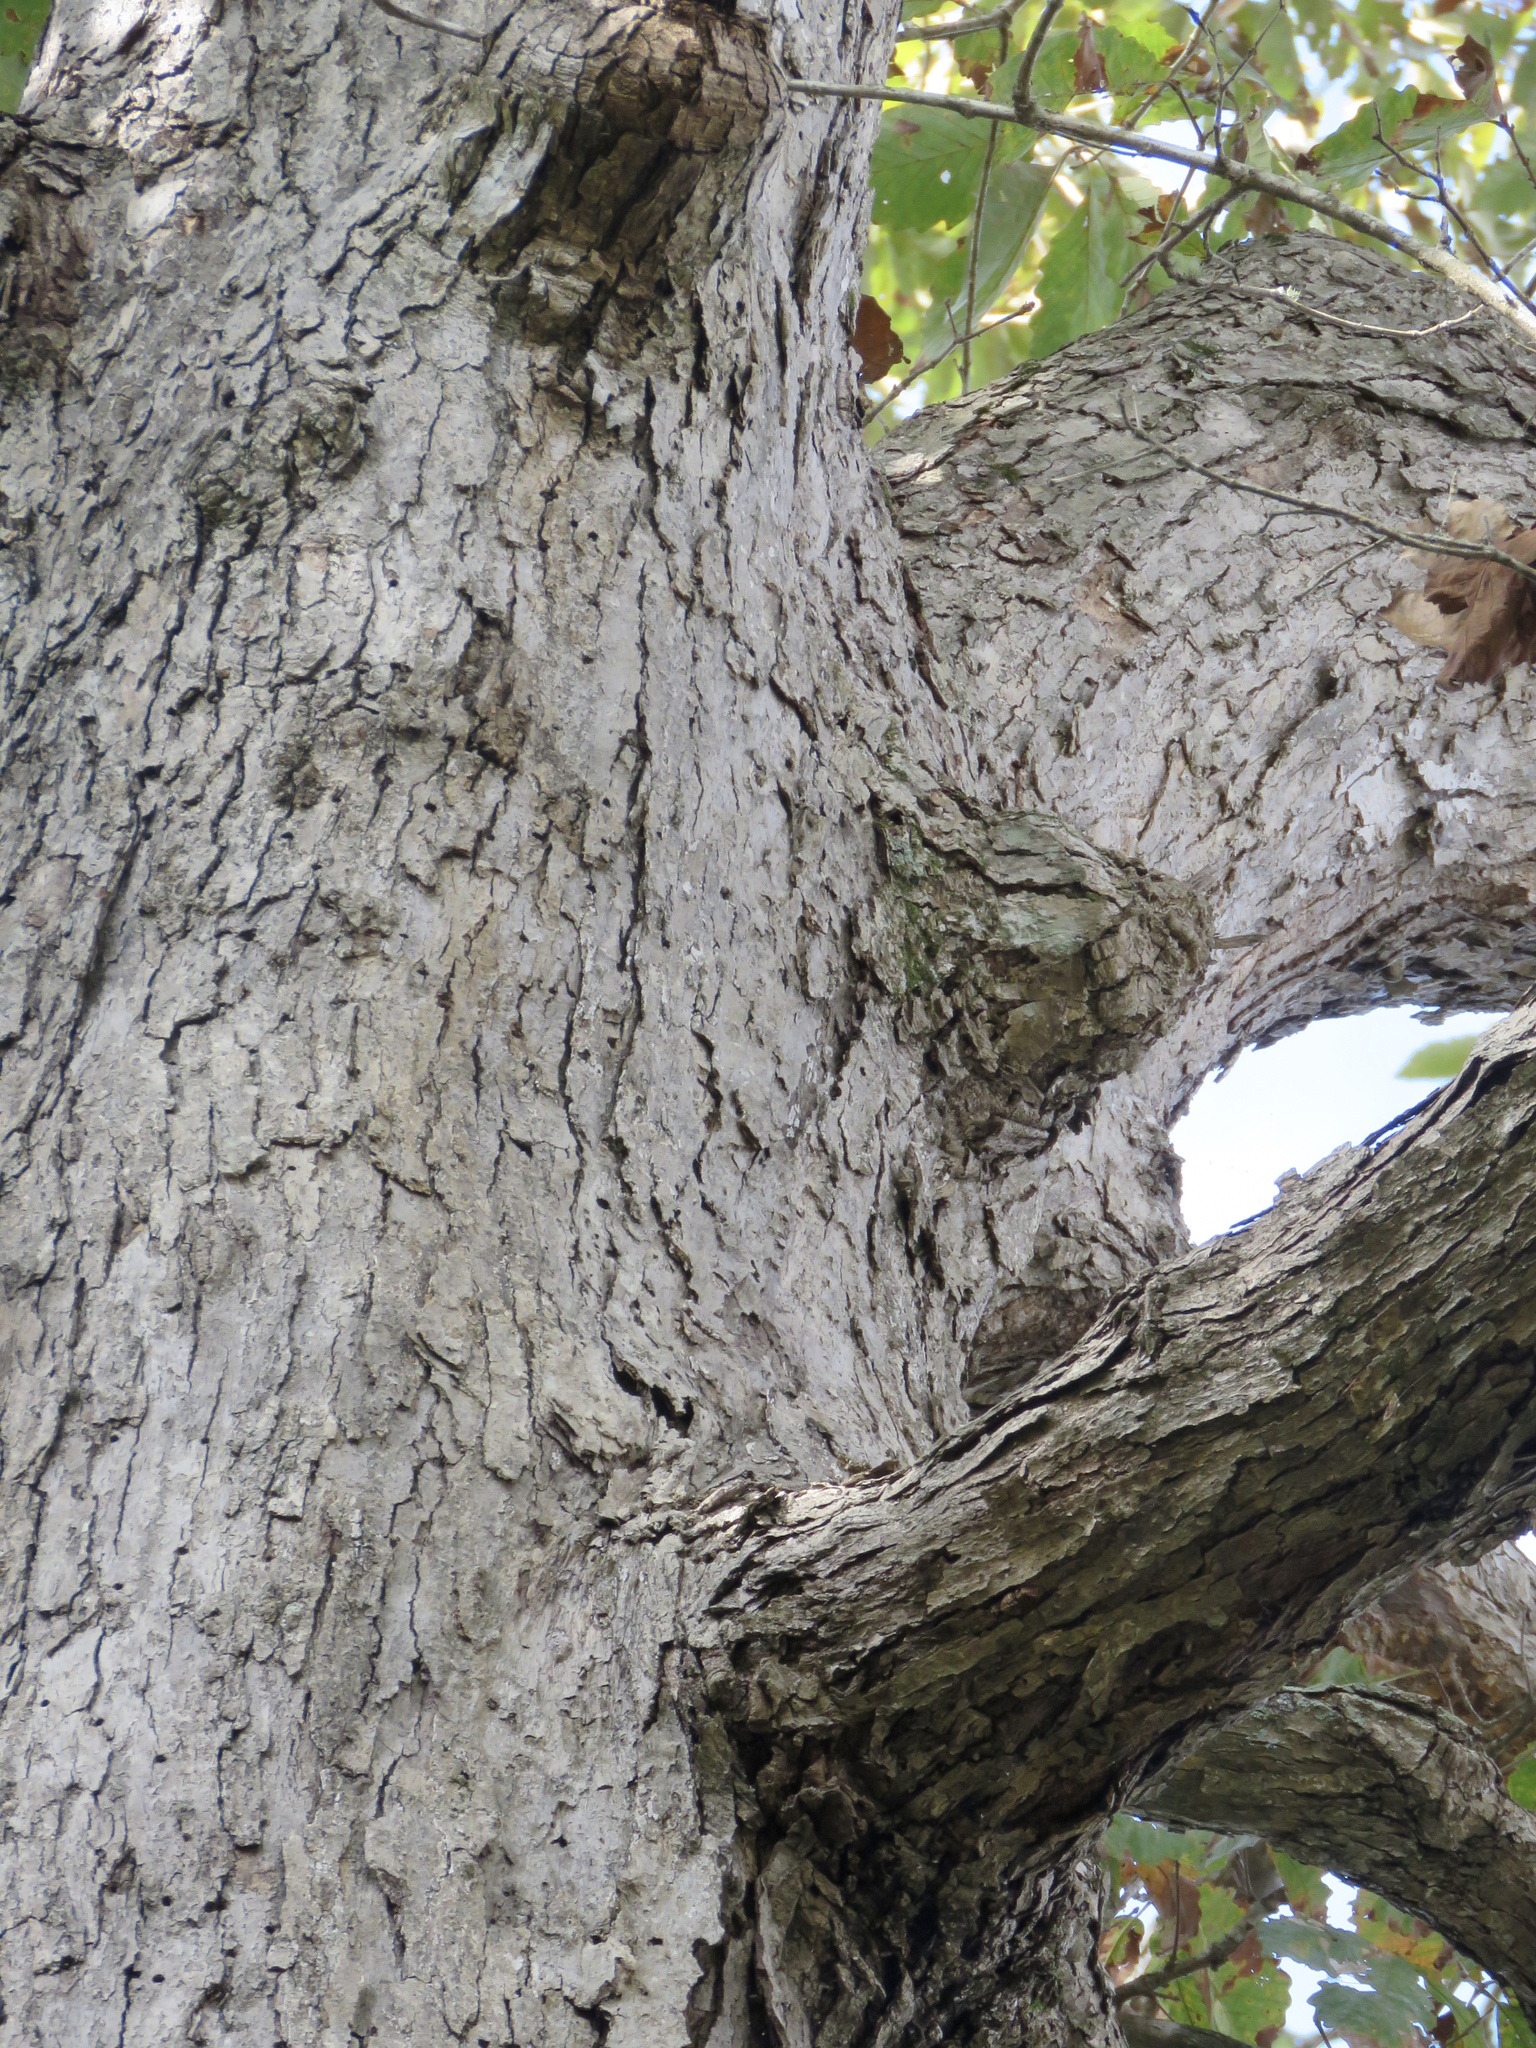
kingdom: Plantae
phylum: Tracheophyta
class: Magnoliopsida
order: Fagales
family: Fagaceae
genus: Quercus
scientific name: Quercus michauxii
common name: Swamp chestnut oak
